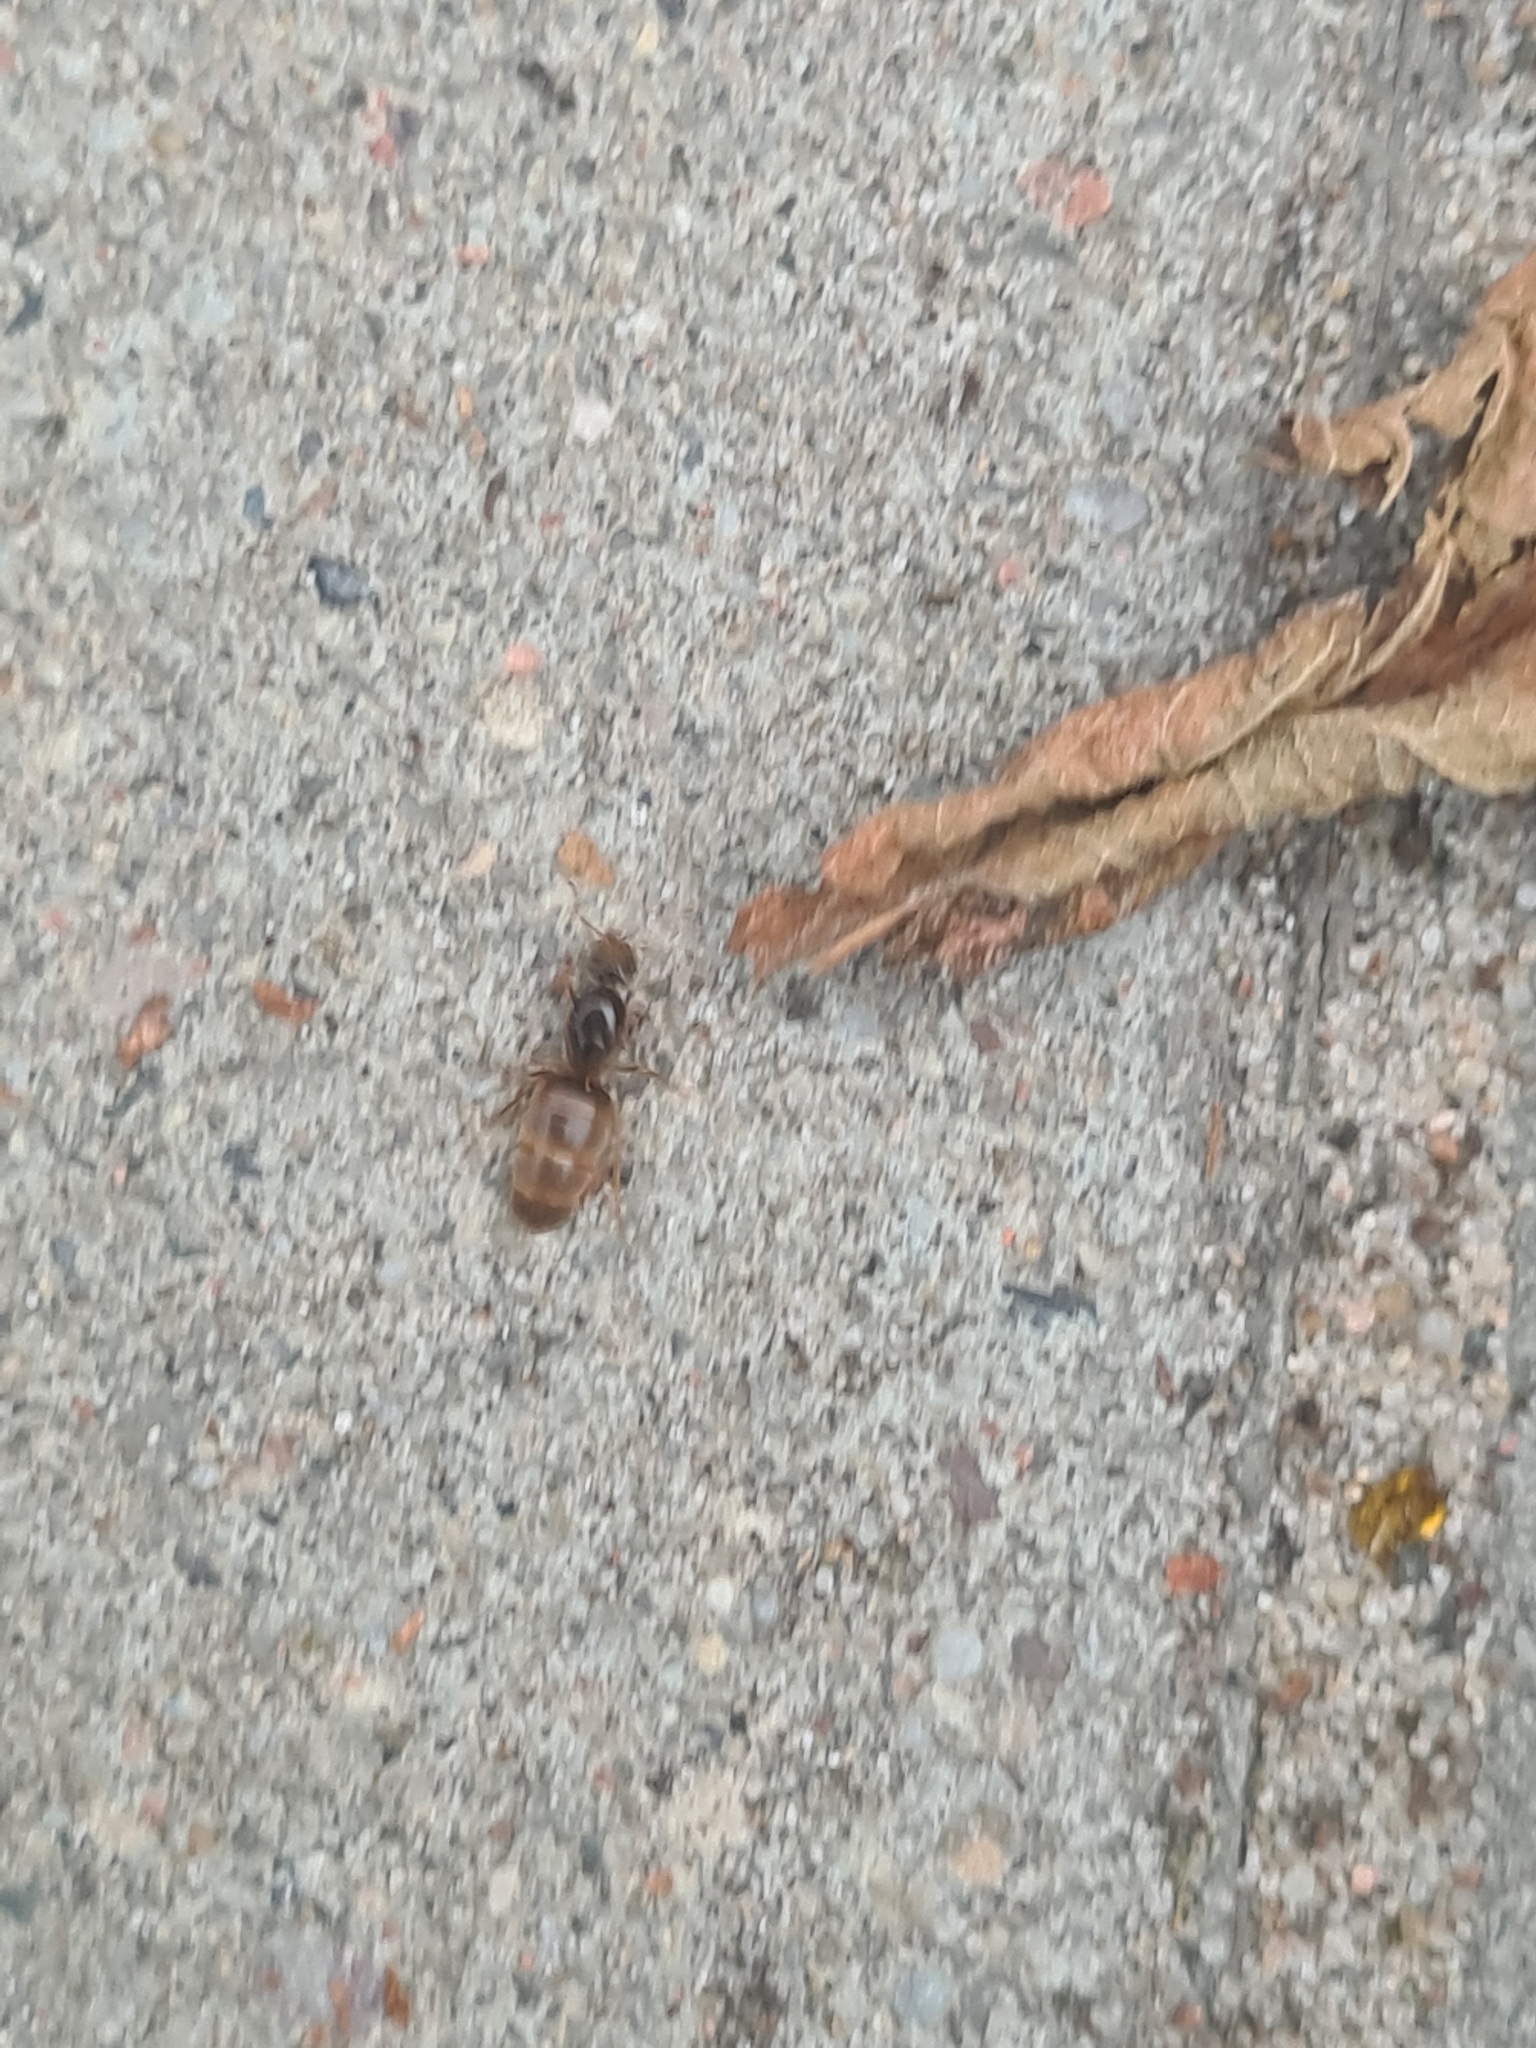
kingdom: Animalia
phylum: Arthropoda
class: Insecta
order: Hymenoptera
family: Formicidae
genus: Lasius
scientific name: Lasius flavus
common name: Blond field ant
